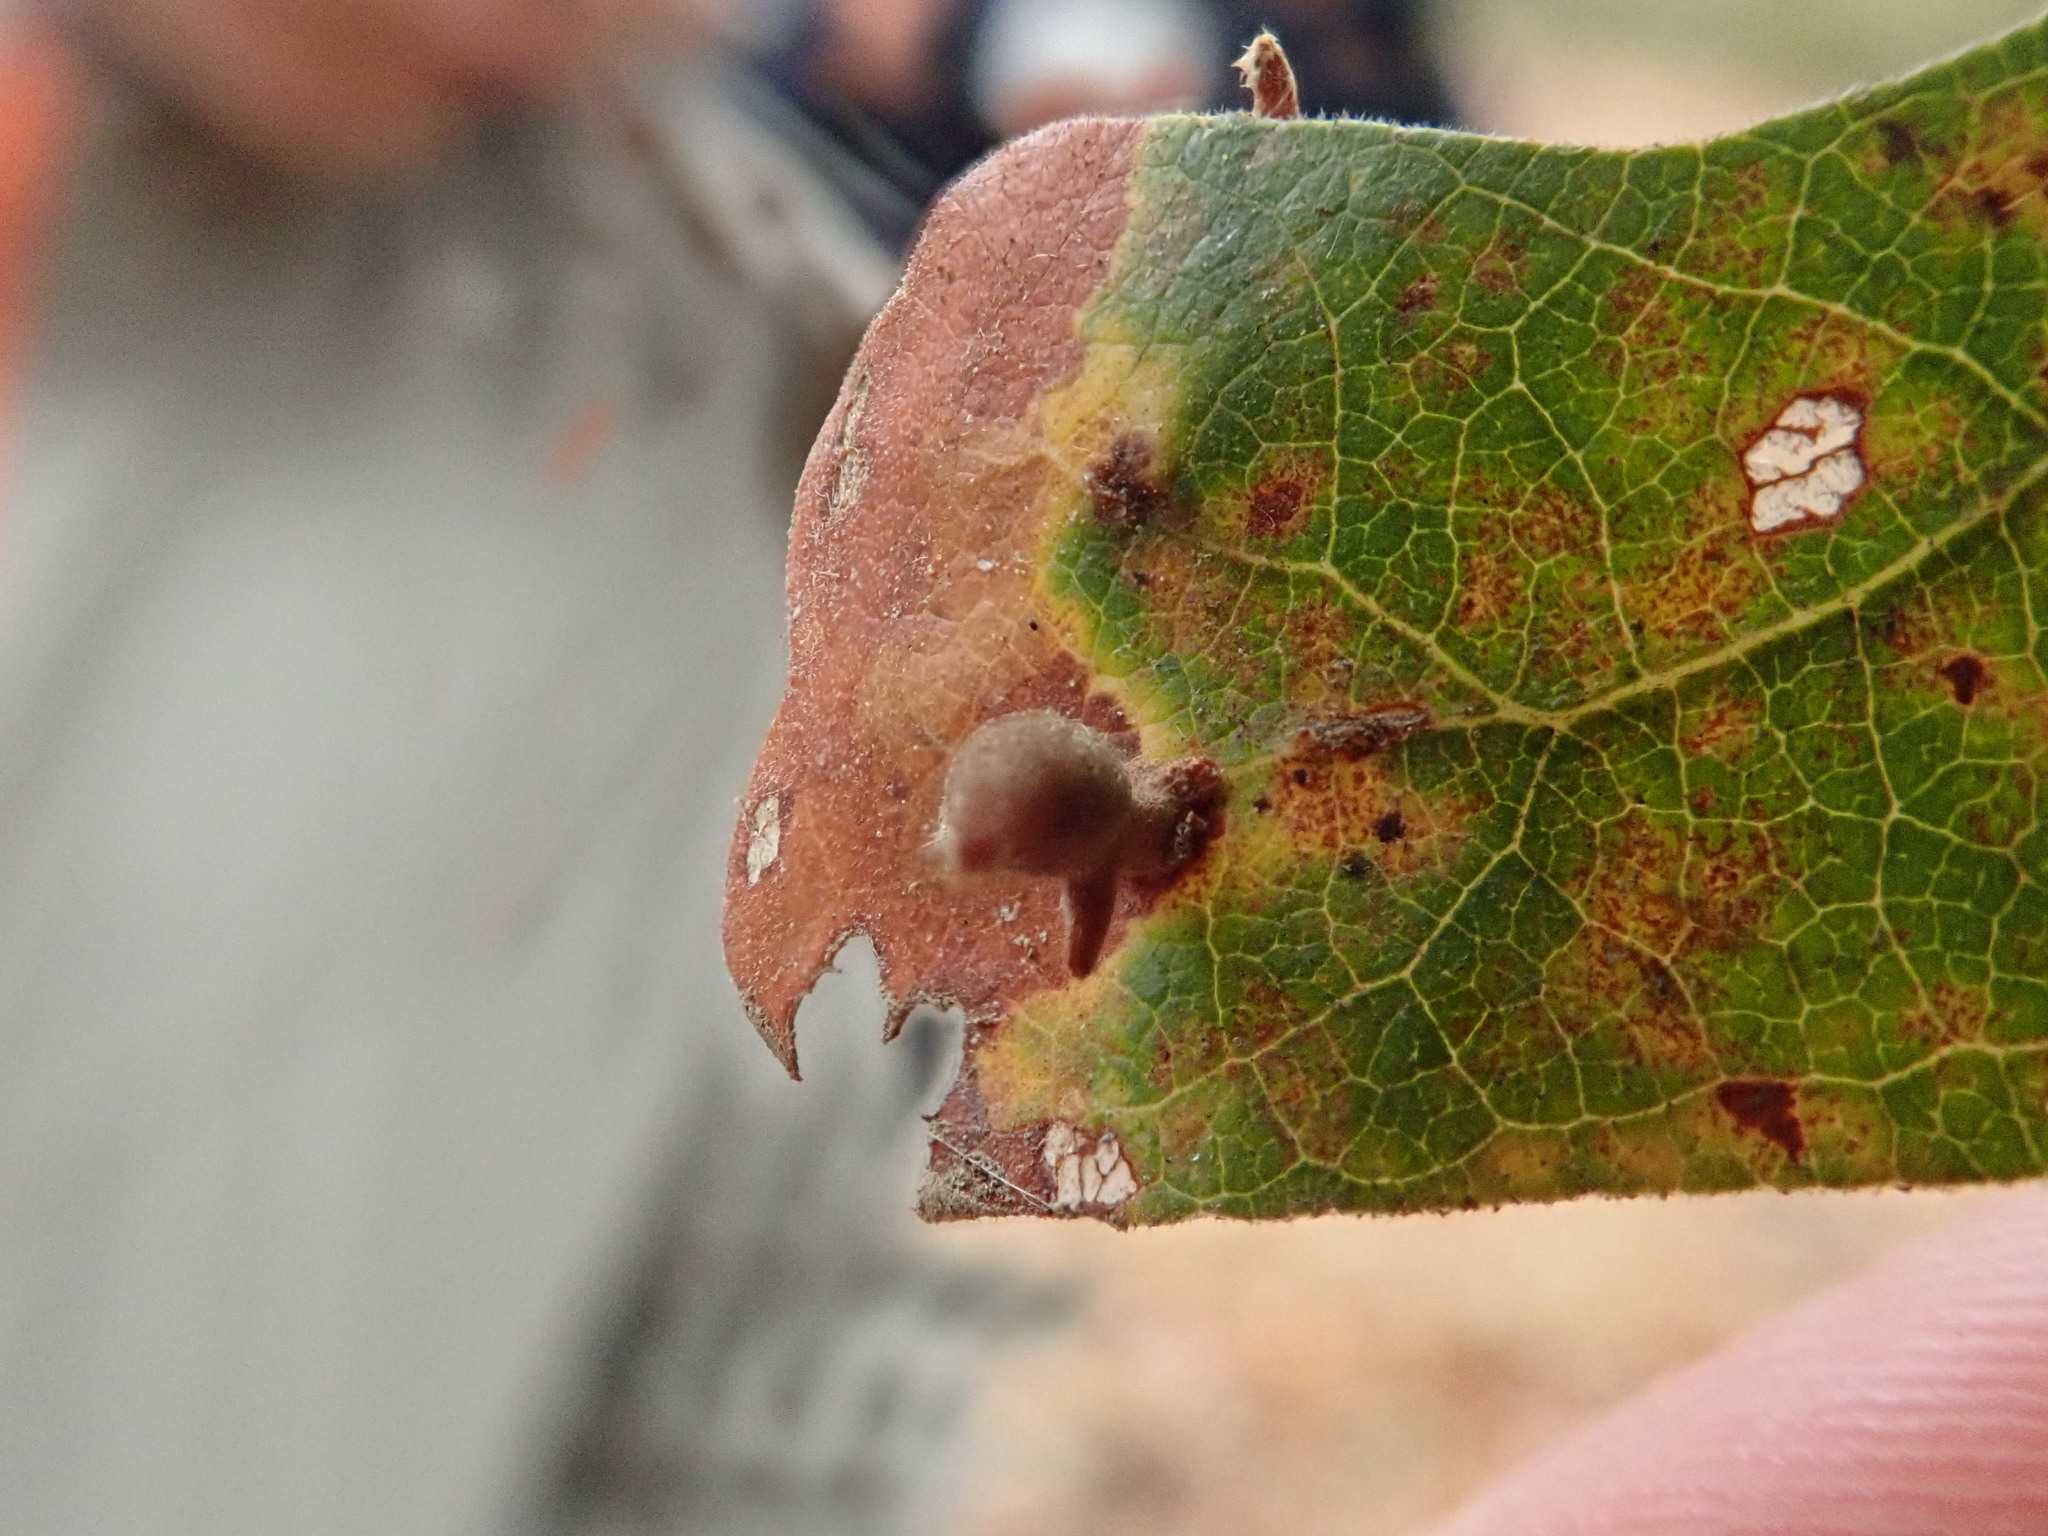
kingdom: Animalia
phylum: Arthropoda
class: Insecta
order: Hymenoptera
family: Cynipidae
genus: Atrusca
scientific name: Atrusca
